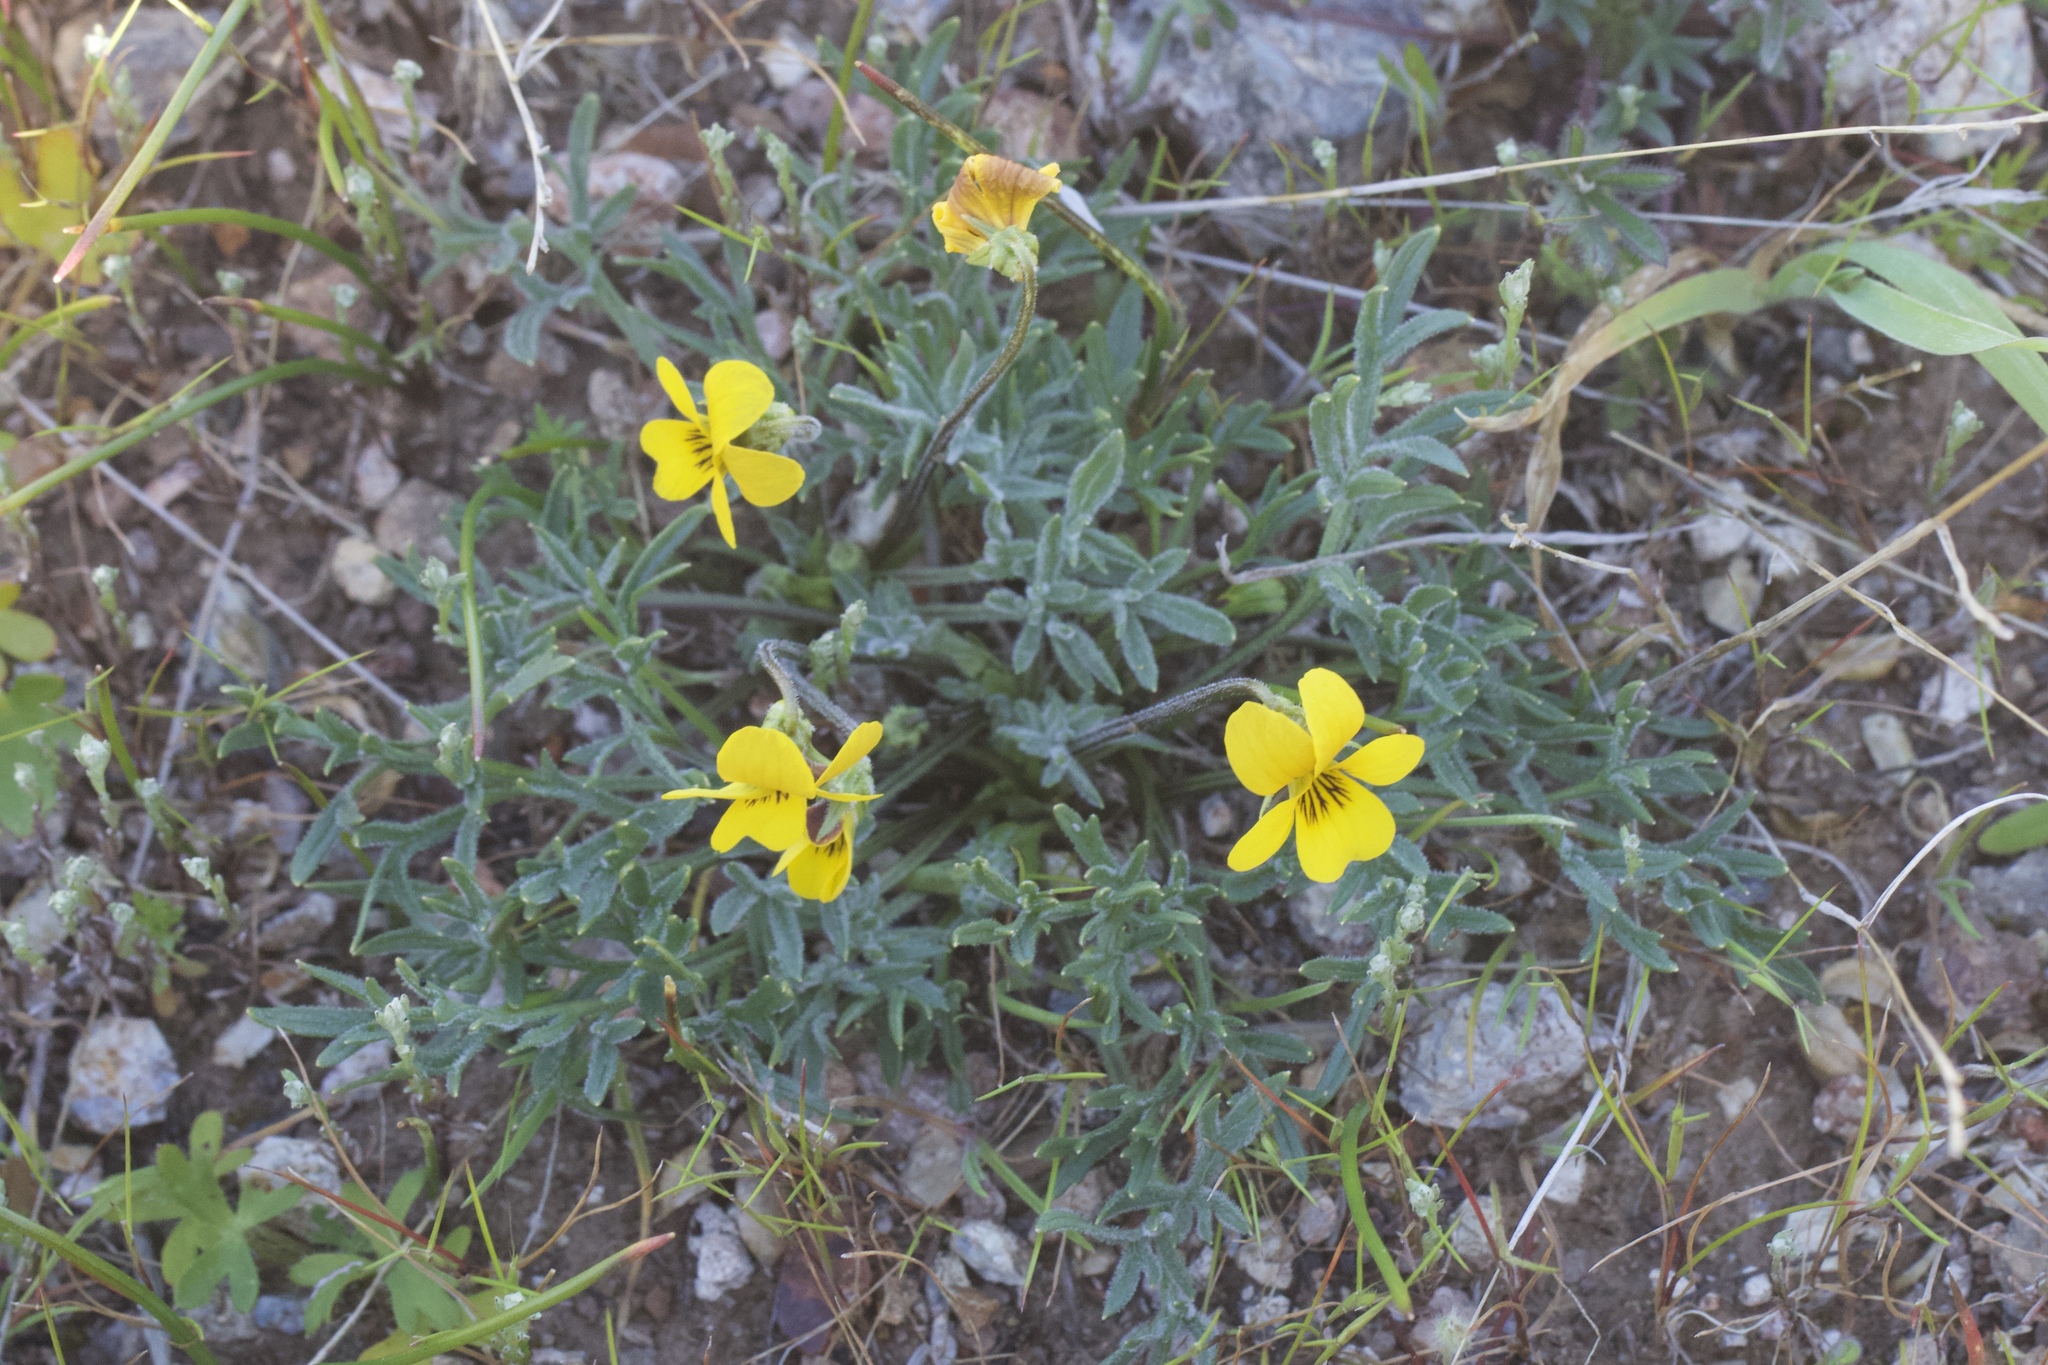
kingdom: Plantae
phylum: Tracheophyta
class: Magnoliopsida
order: Malpighiales
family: Violaceae
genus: Viola
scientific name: Viola douglasii
